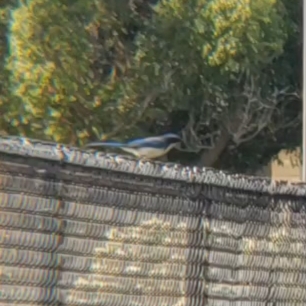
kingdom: Animalia
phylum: Chordata
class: Aves
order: Passeriformes
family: Corvidae
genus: Aphelocoma
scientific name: Aphelocoma californica
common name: California scrub-jay
